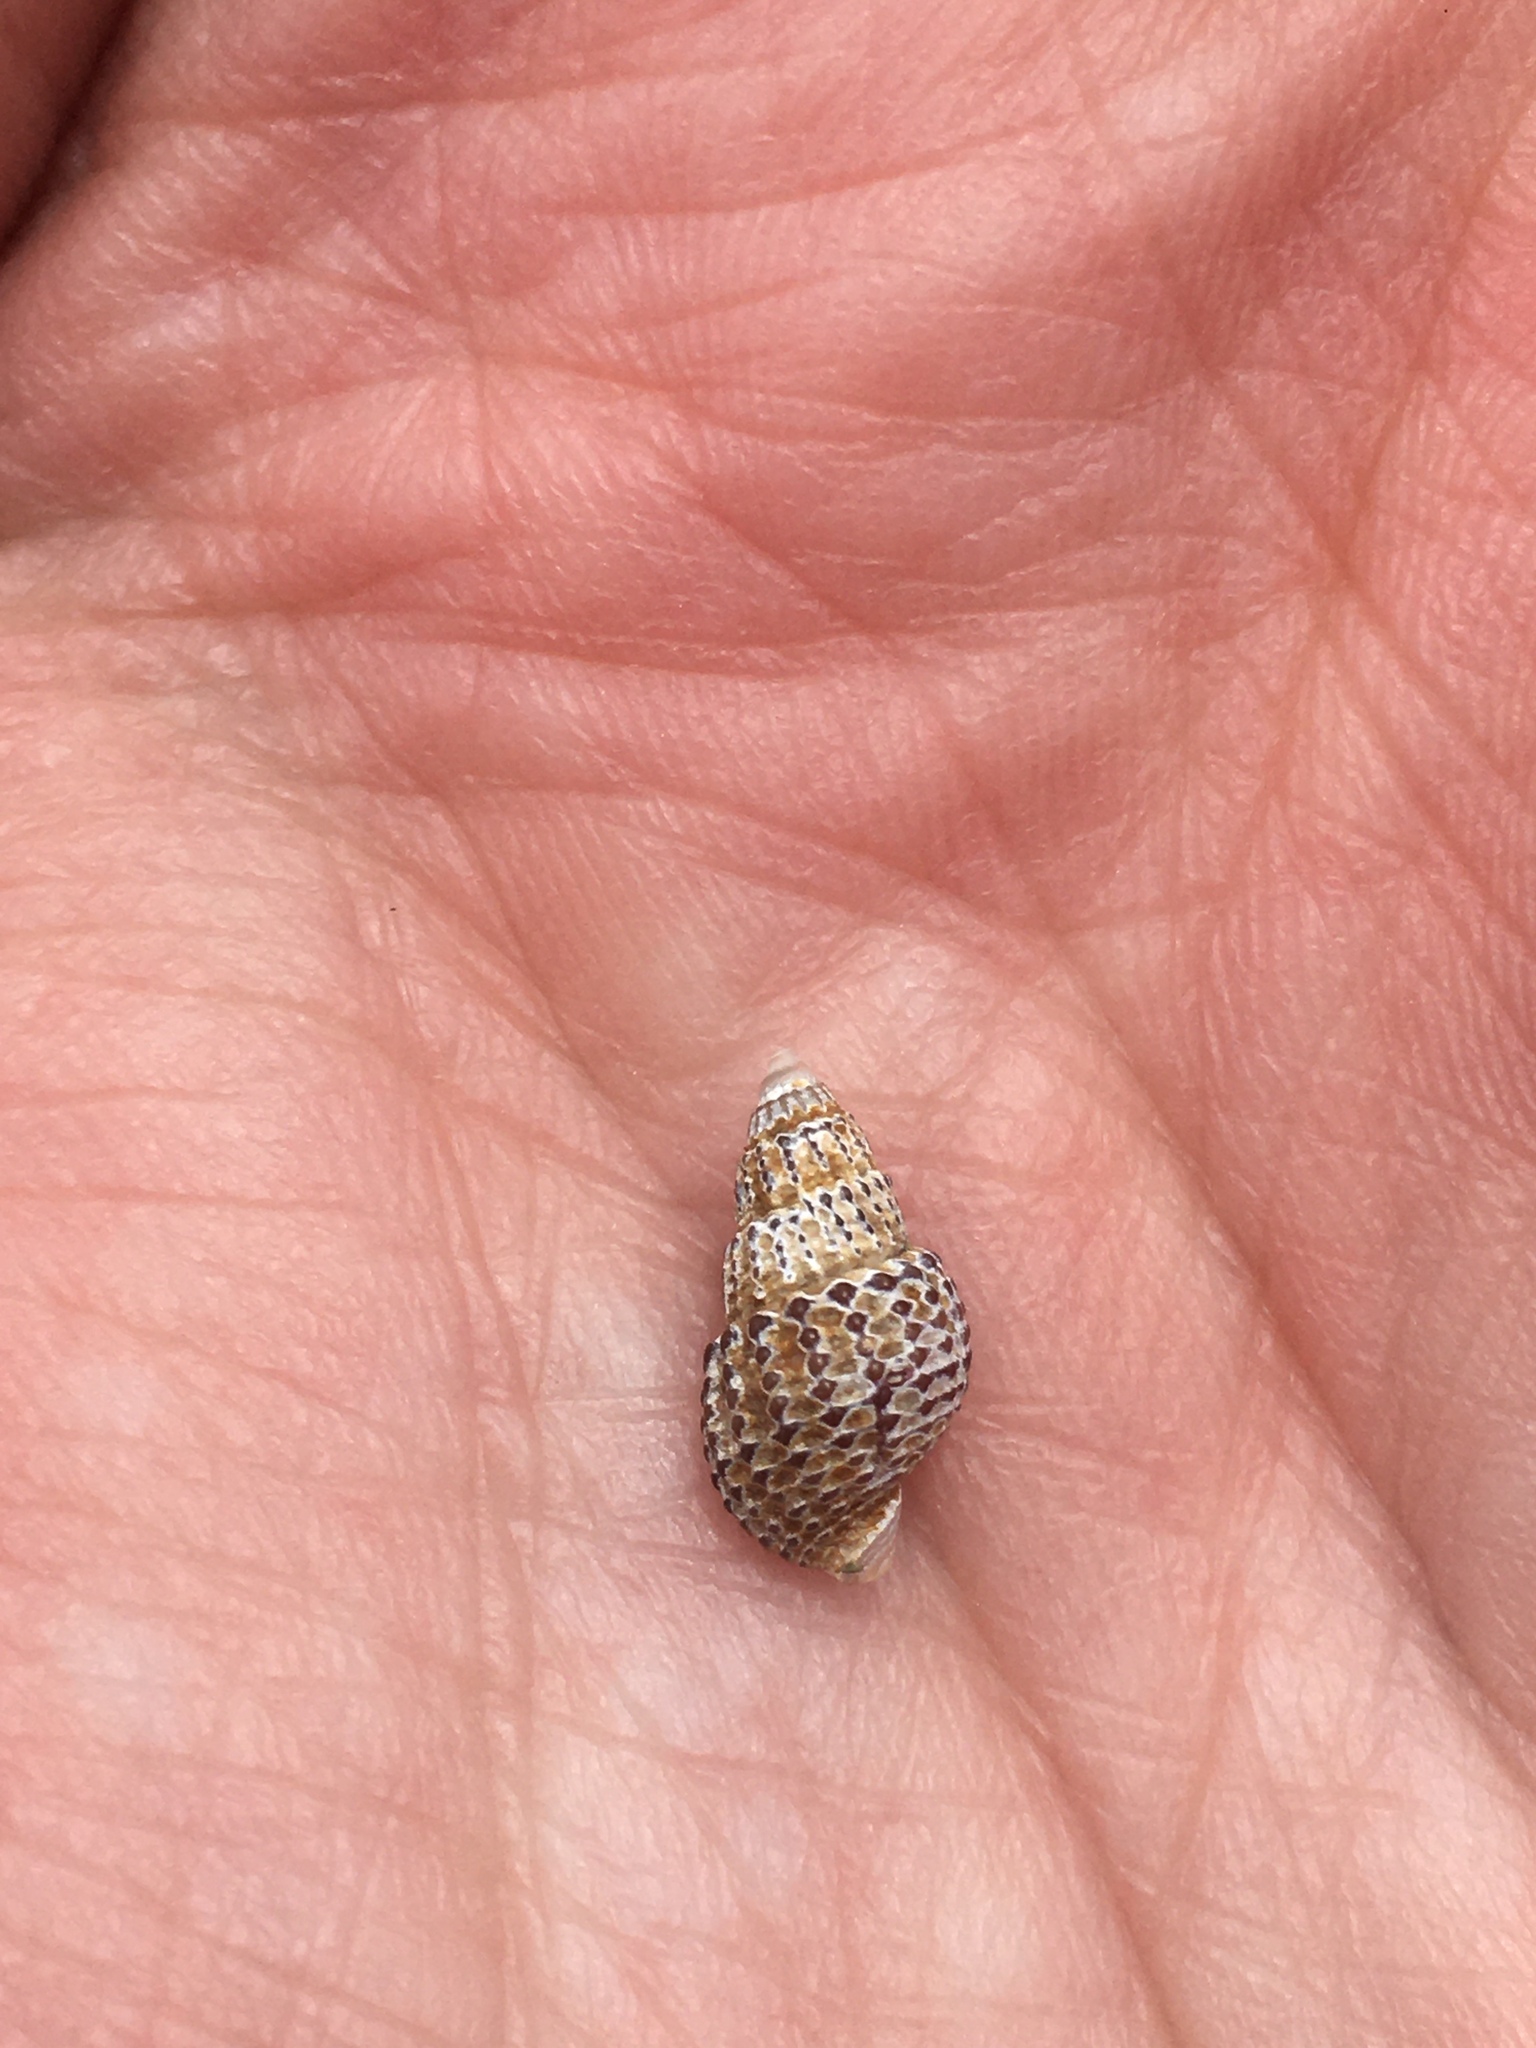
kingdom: Animalia
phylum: Mollusca
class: Gastropoda
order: Neogastropoda
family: Nassariidae
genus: Ilyanassa
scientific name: Ilyanassa trivittata
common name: Three-line mudsnail
